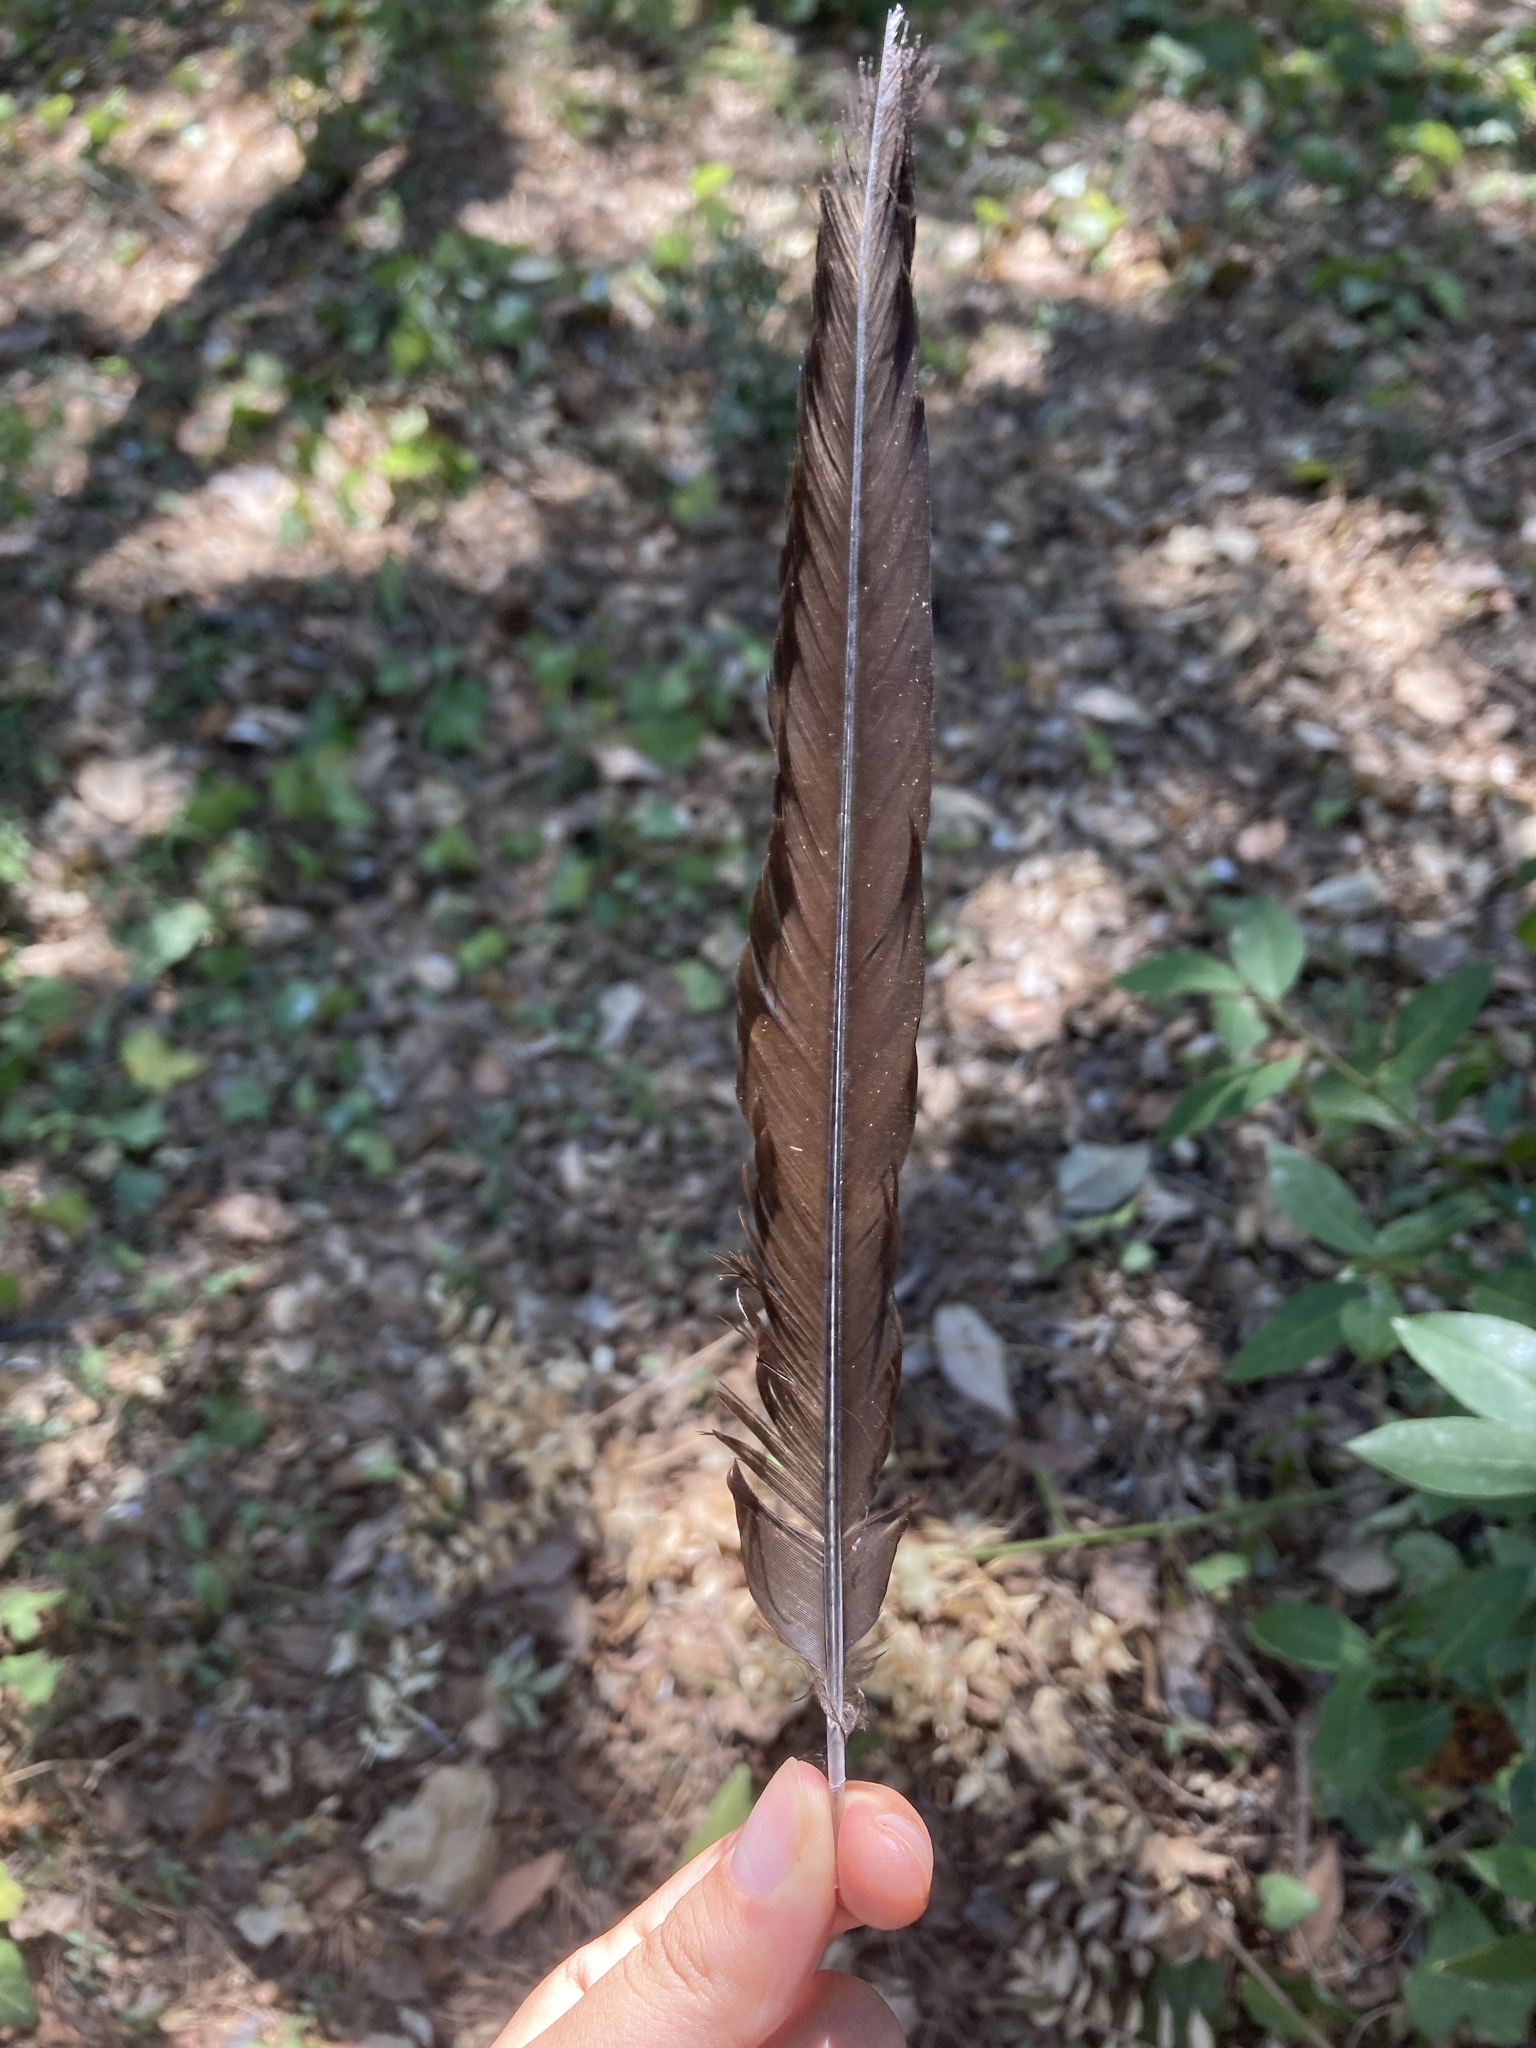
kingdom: Animalia
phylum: Chordata
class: Aves
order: Passeriformes
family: Corvidae
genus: Pica
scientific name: Pica pica
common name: Eurasian magpie
